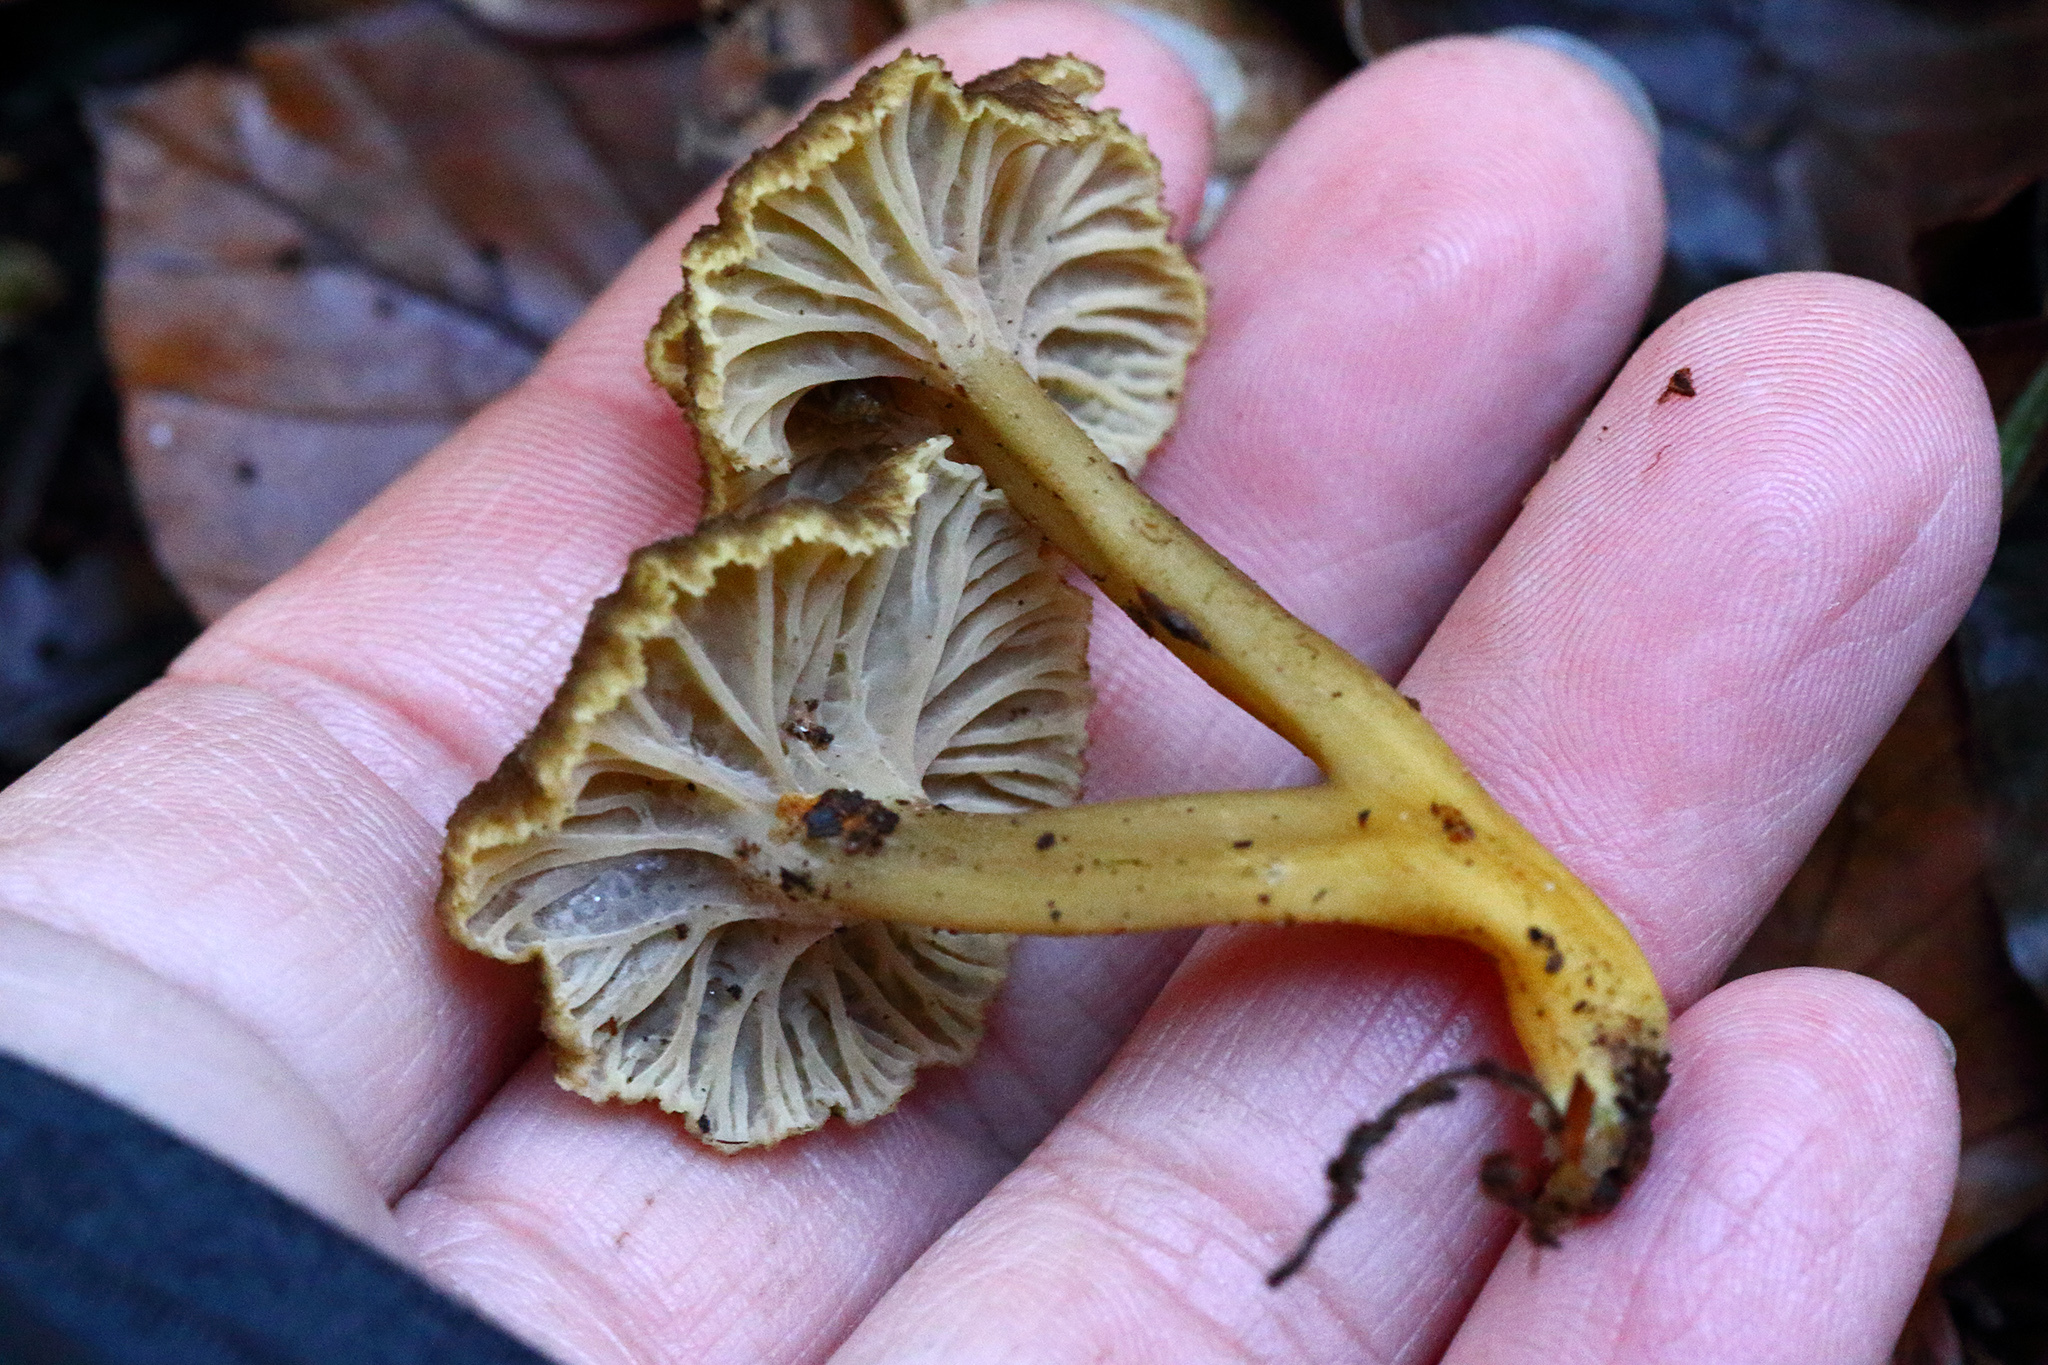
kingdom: Fungi
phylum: Basidiomycota
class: Agaricomycetes
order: Cantharellales
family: Hydnaceae
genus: Craterellus
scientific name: Craterellus tubaeformis
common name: Yellowfoot
